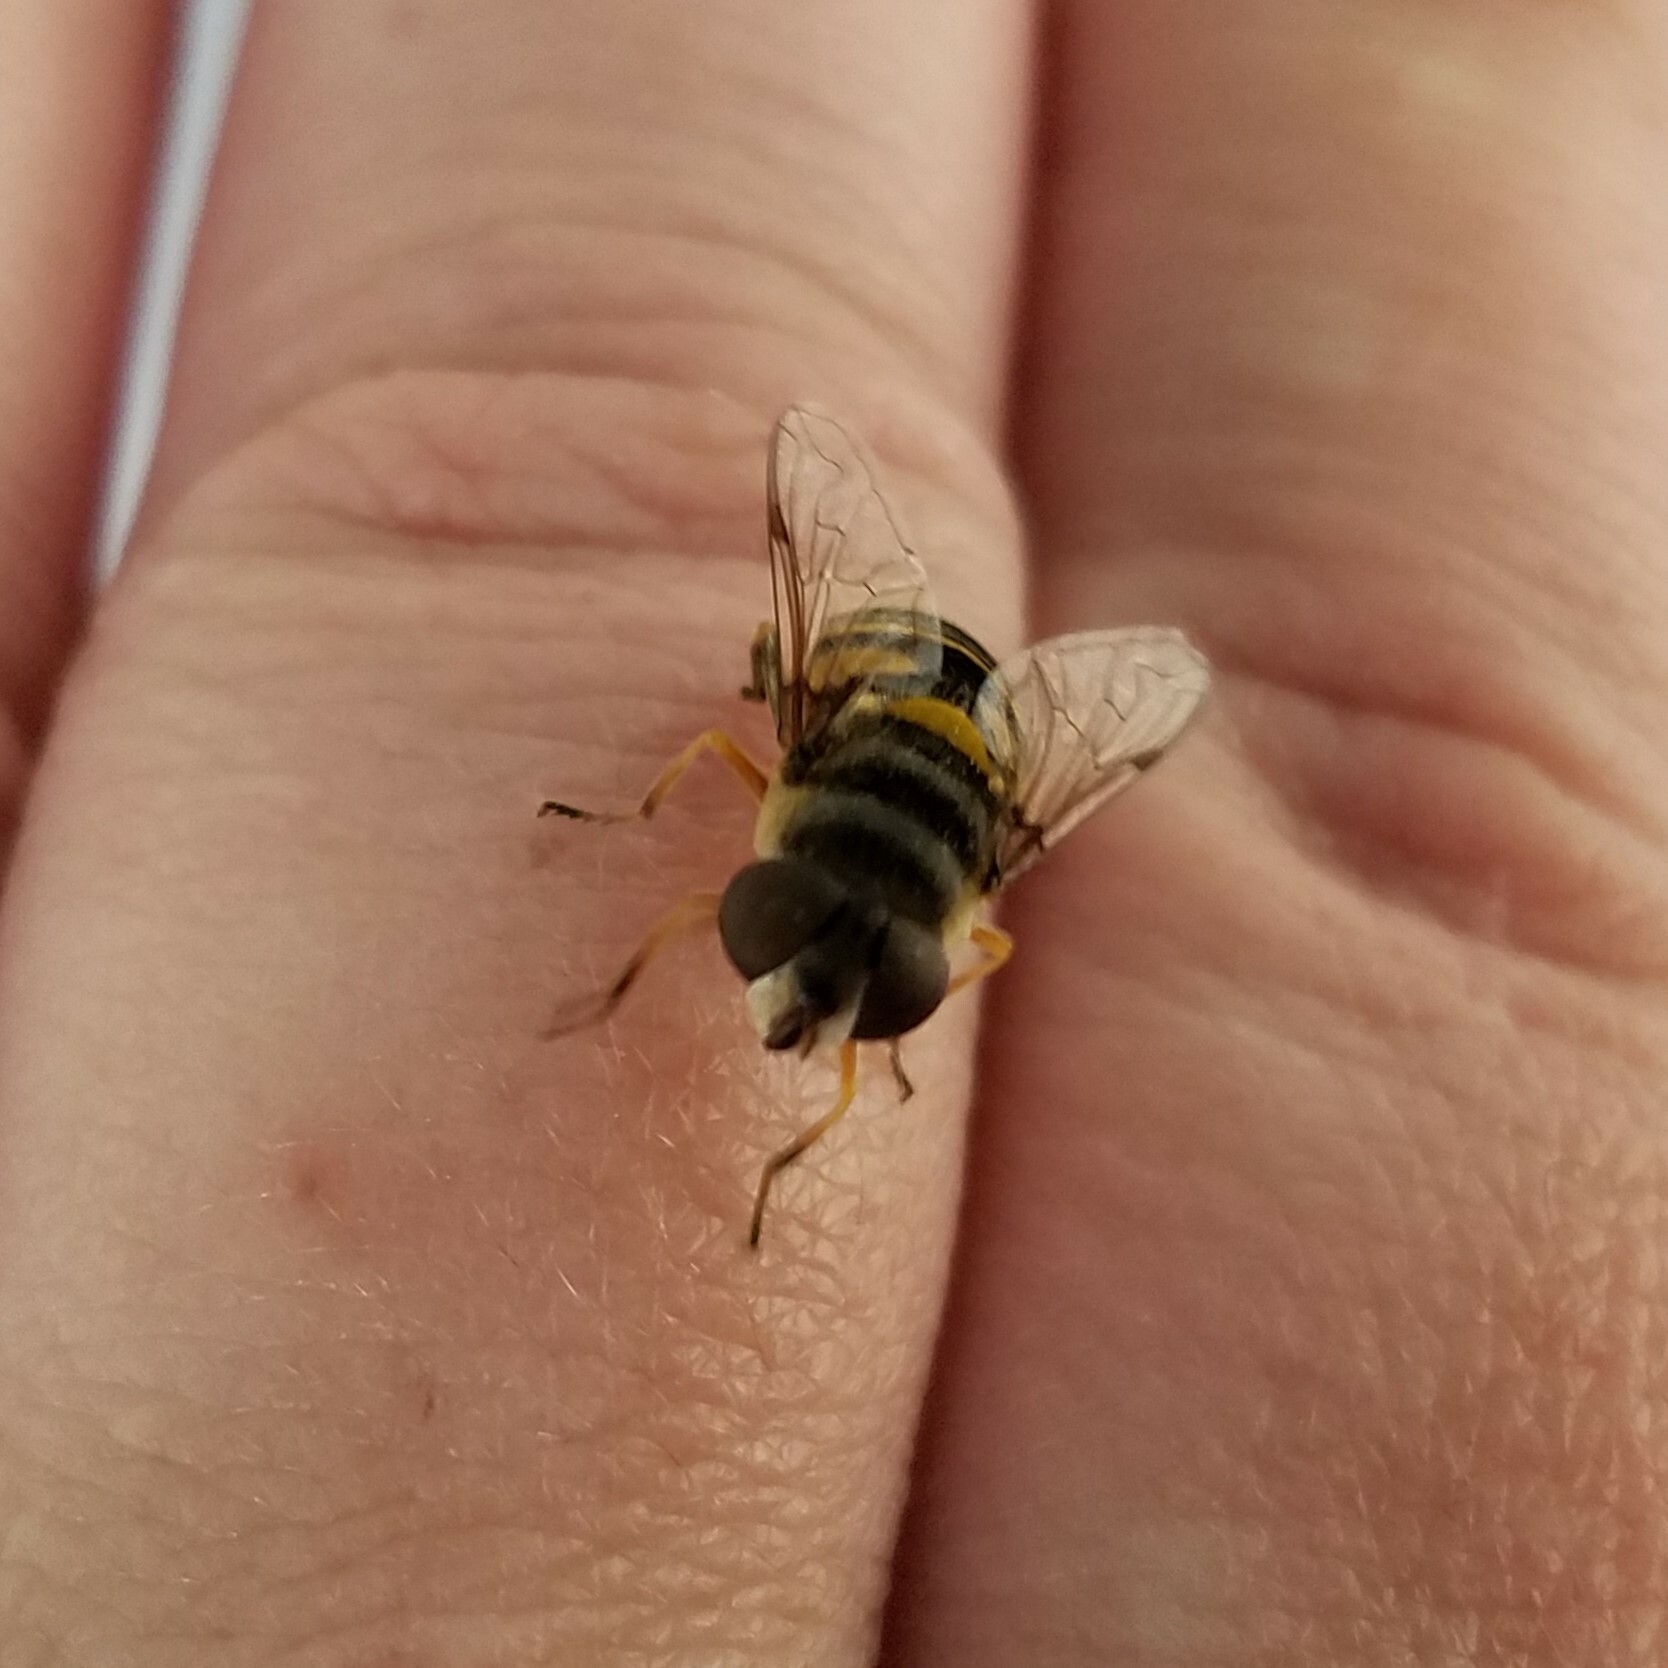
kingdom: Animalia
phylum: Arthropoda
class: Insecta
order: Diptera
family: Syrphidae
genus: Eristalis
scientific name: Eristalis transversa
